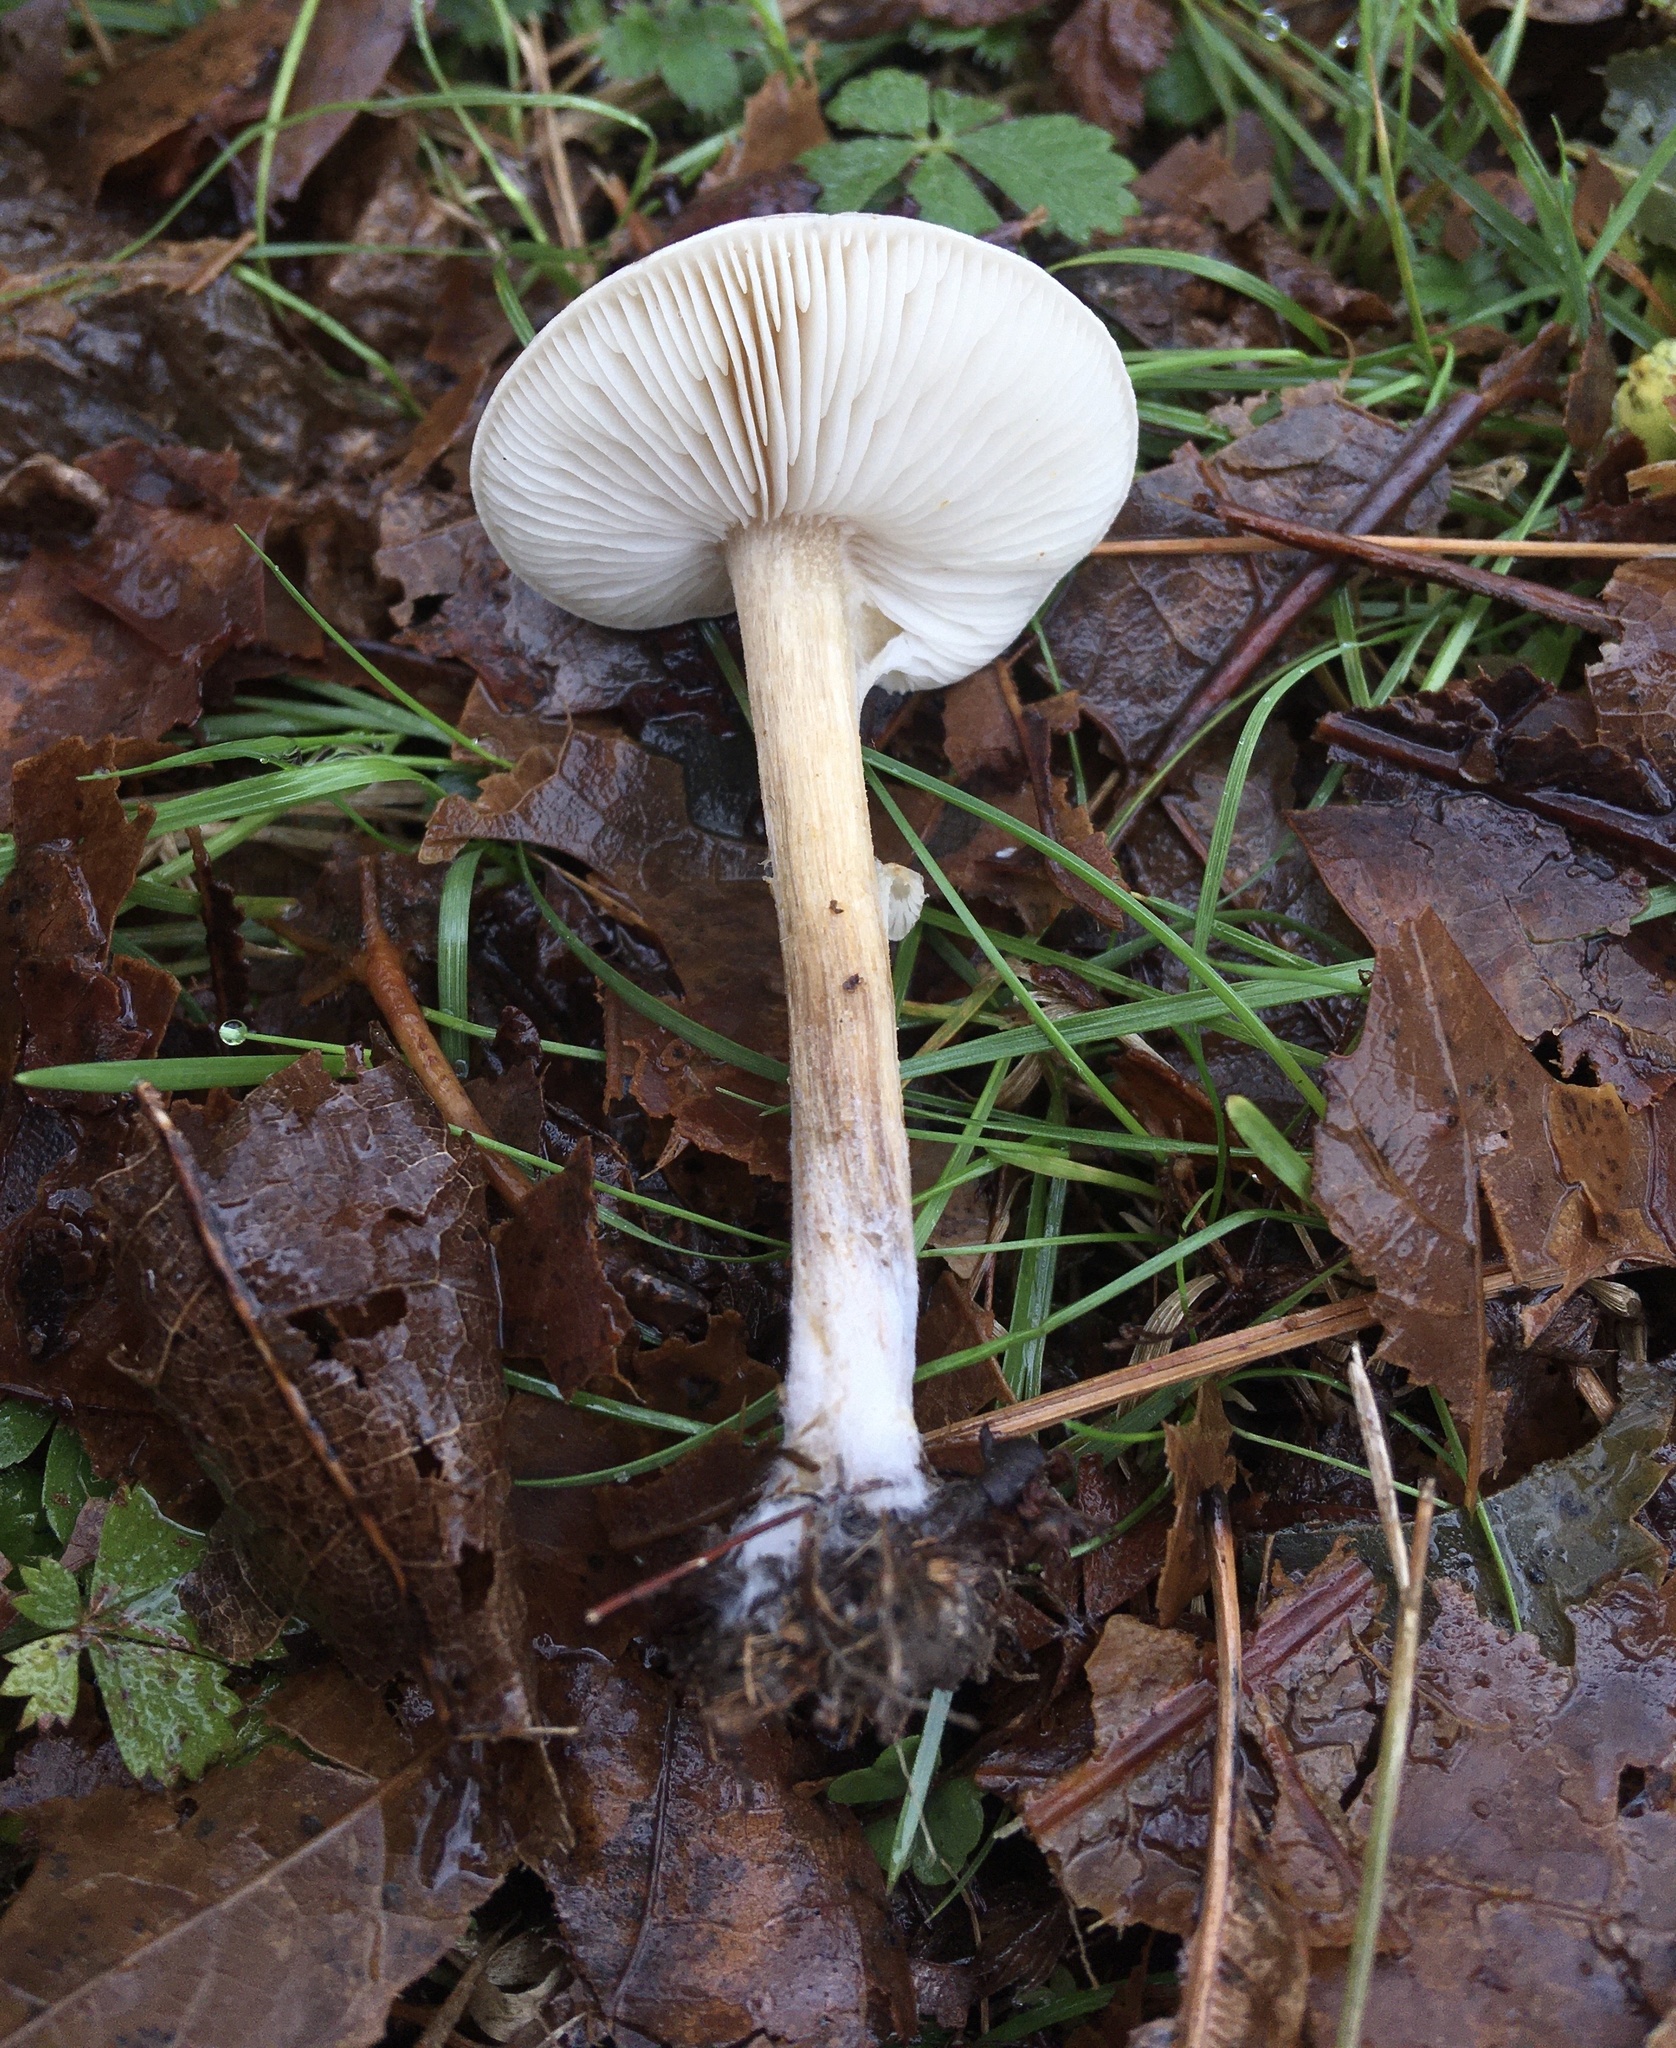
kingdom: Fungi
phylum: Basidiomycota
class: Agaricomycetes
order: Agaricales
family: Tricholomataceae
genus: Melanoleuca
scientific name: Melanoleuca cinereifolia
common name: Dune cavalier
